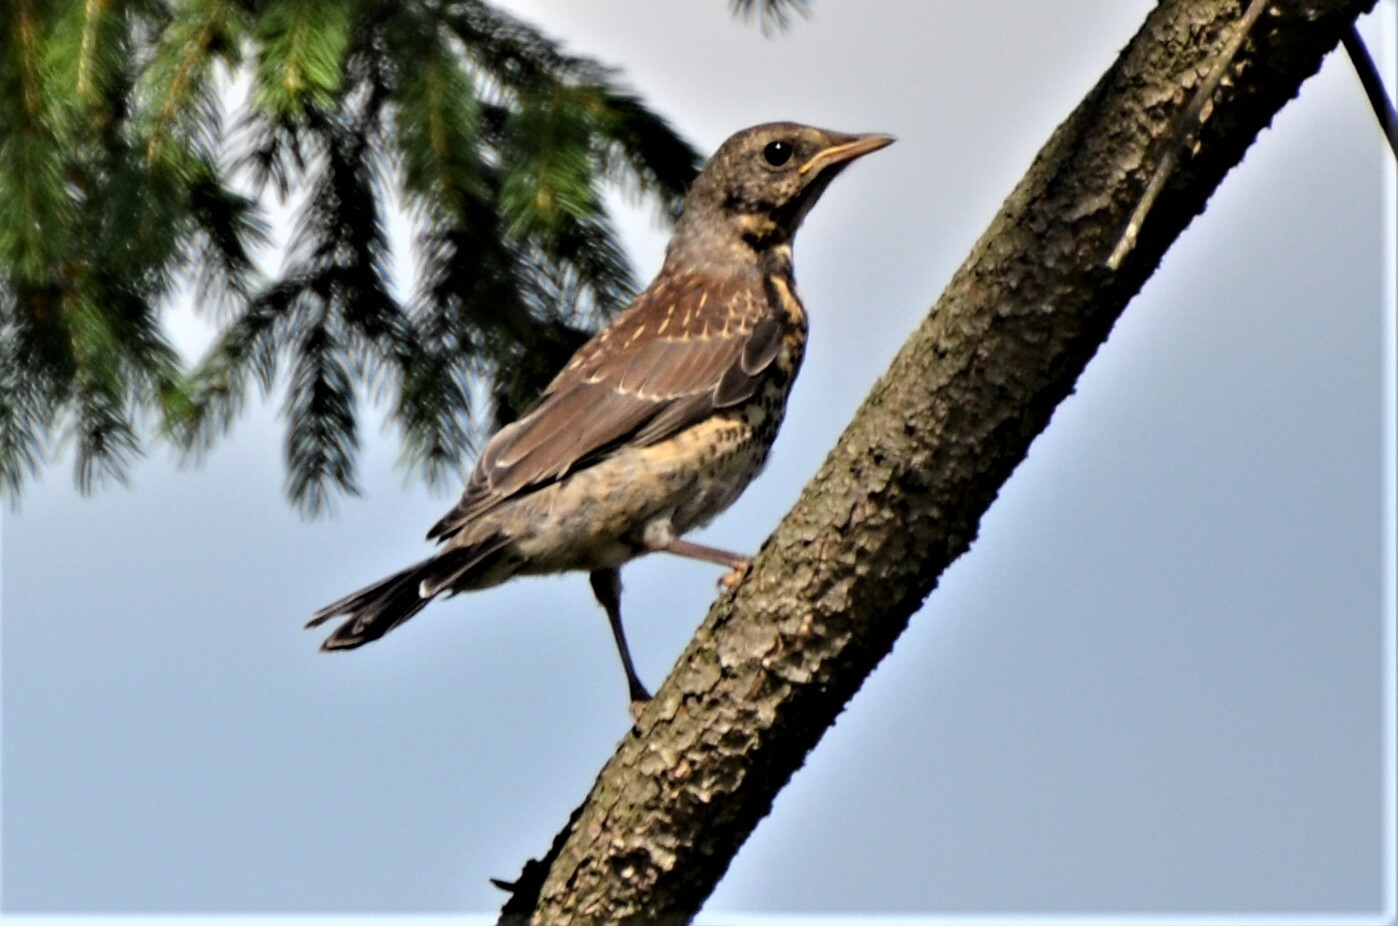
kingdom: Animalia
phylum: Chordata
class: Aves
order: Passeriformes
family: Turdidae
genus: Turdus
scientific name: Turdus pilaris
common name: Fieldfare
